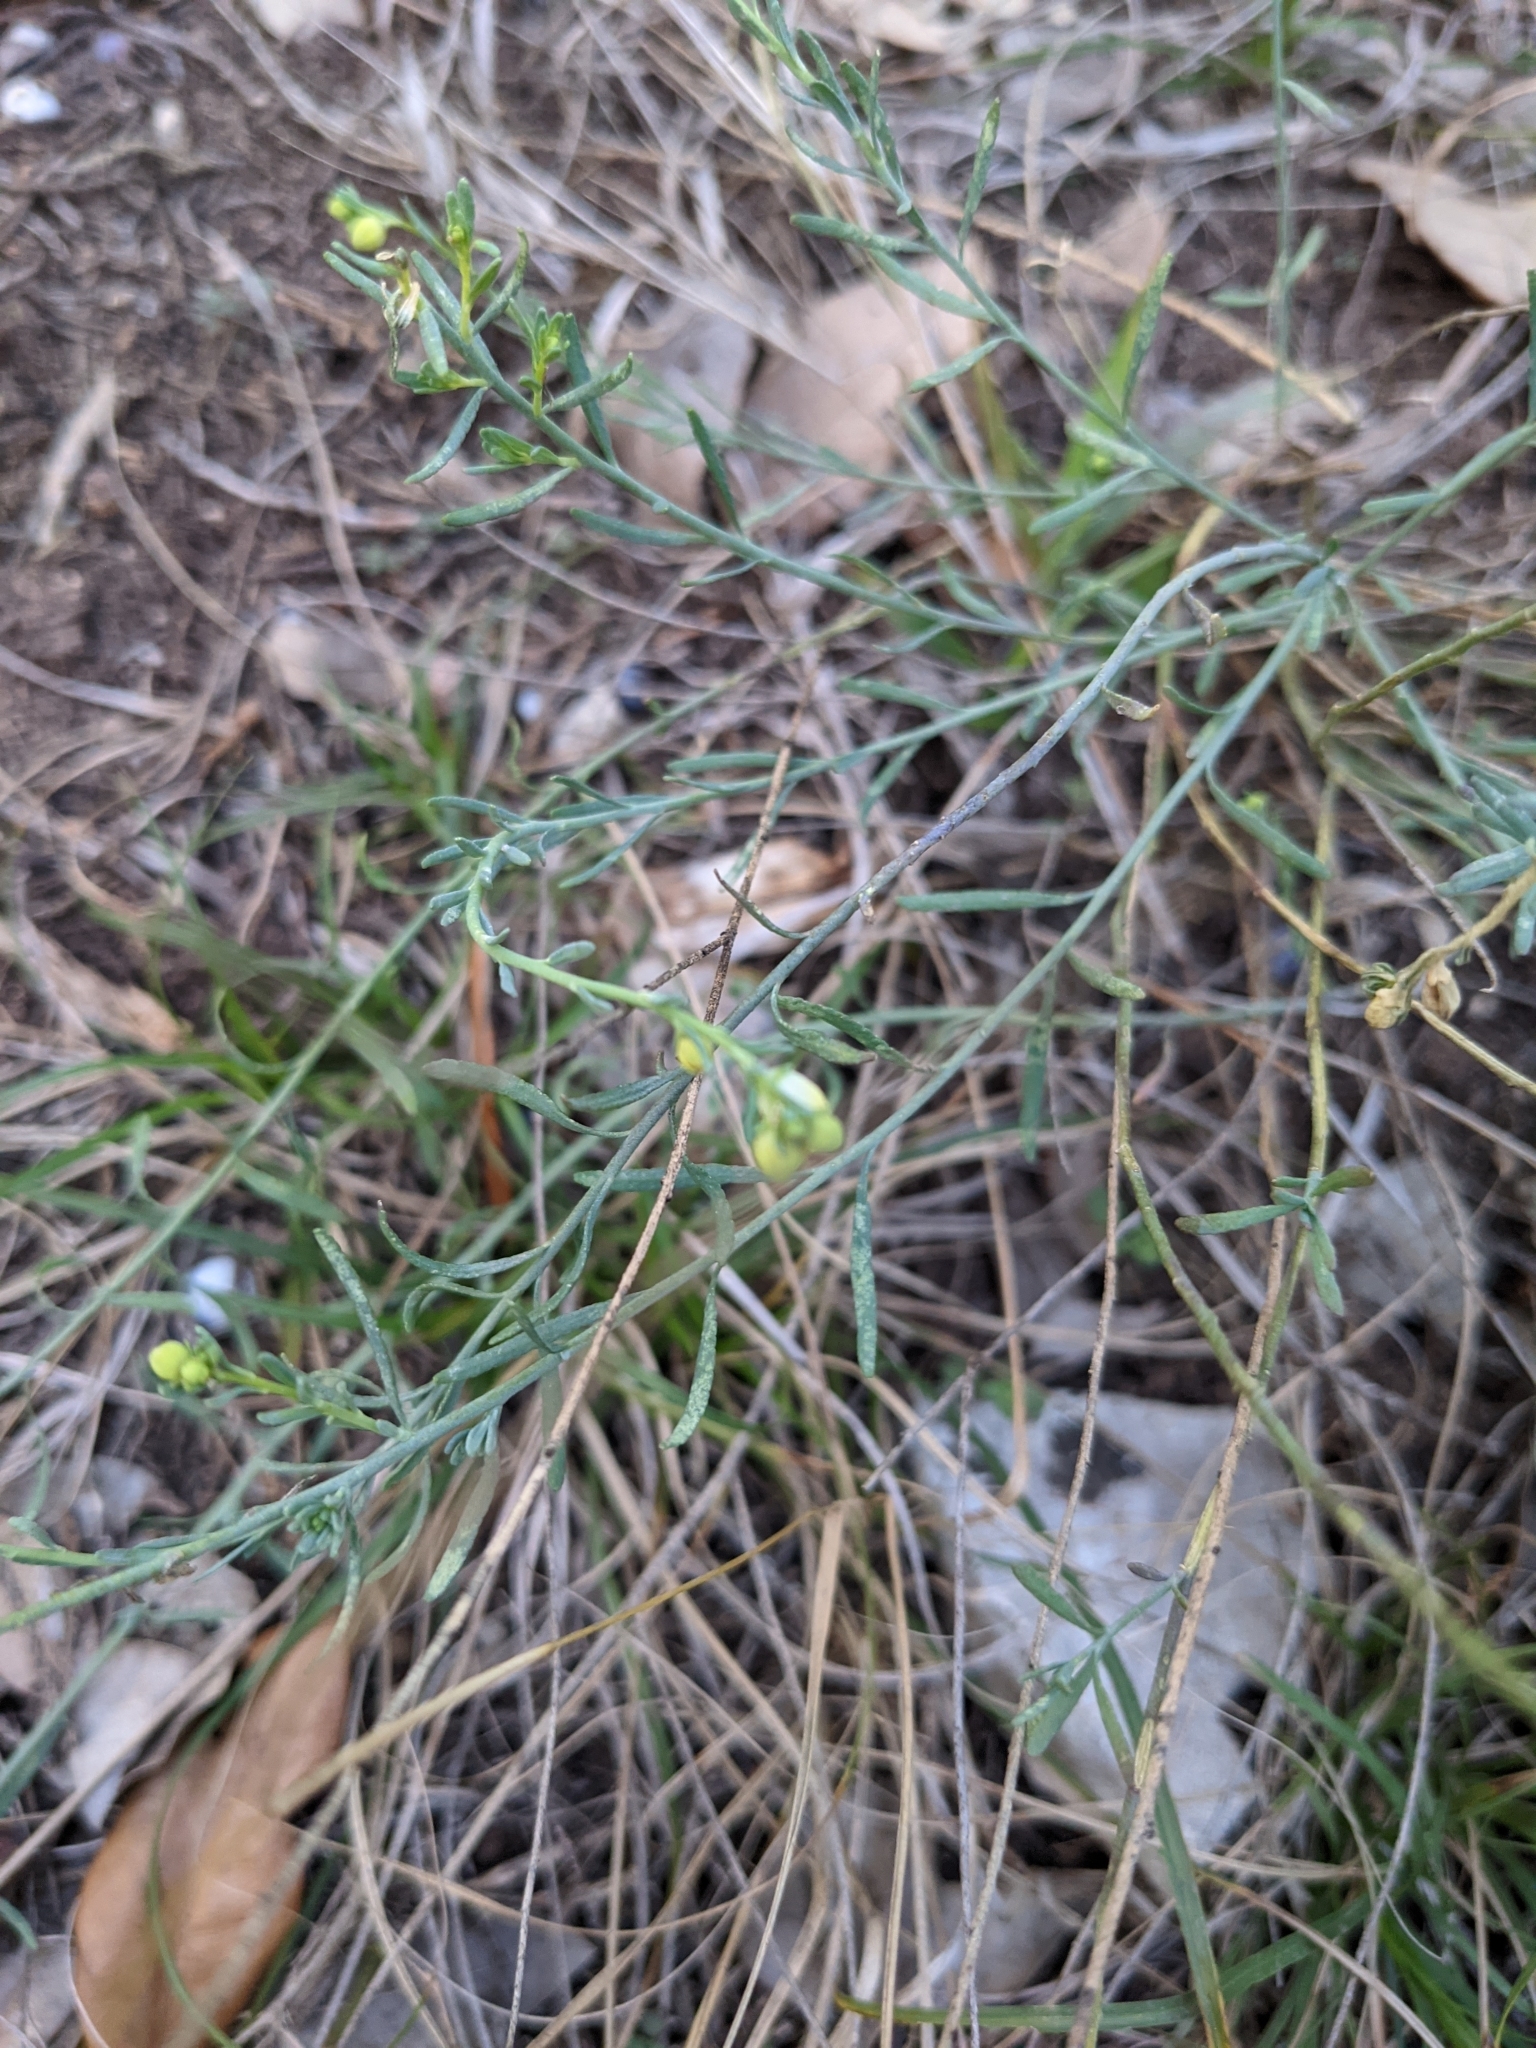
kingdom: Plantae
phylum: Tracheophyta
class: Magnoliopsida
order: Sapindales
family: Rutaceae
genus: Thamnosma
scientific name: Thamnosma texana
